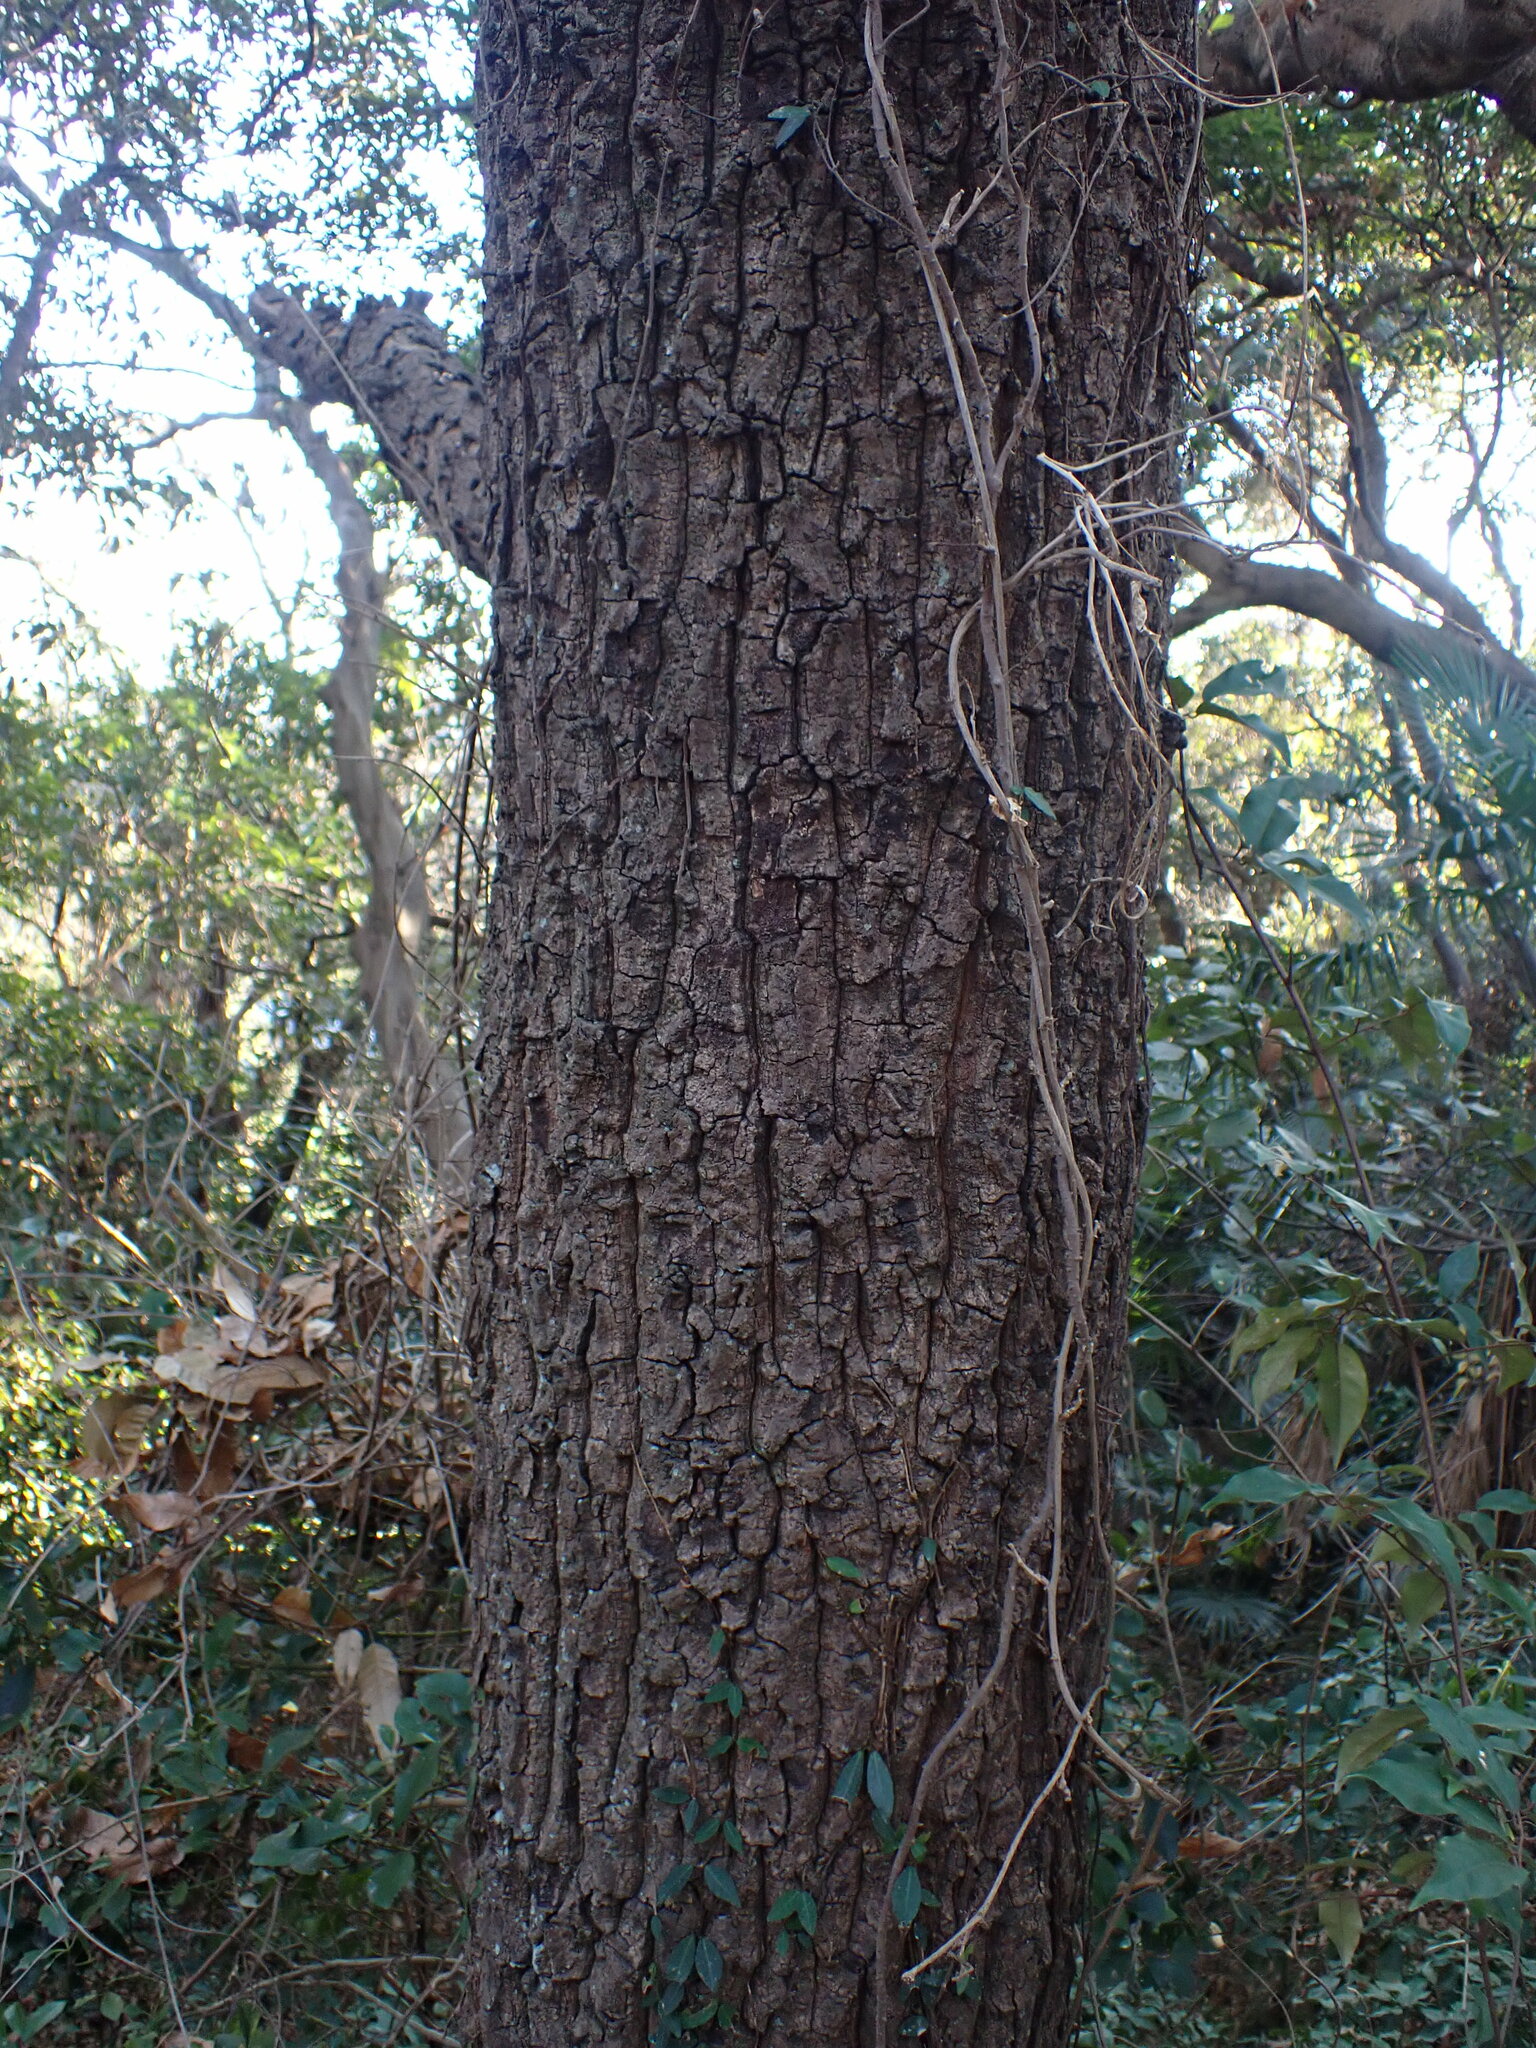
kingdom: Plantae
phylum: Tracheophyta
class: Magnoliopsida
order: Fagales
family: Fagaceae
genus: Quercus
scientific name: Quercus acutissima
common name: Sawtooth oak
